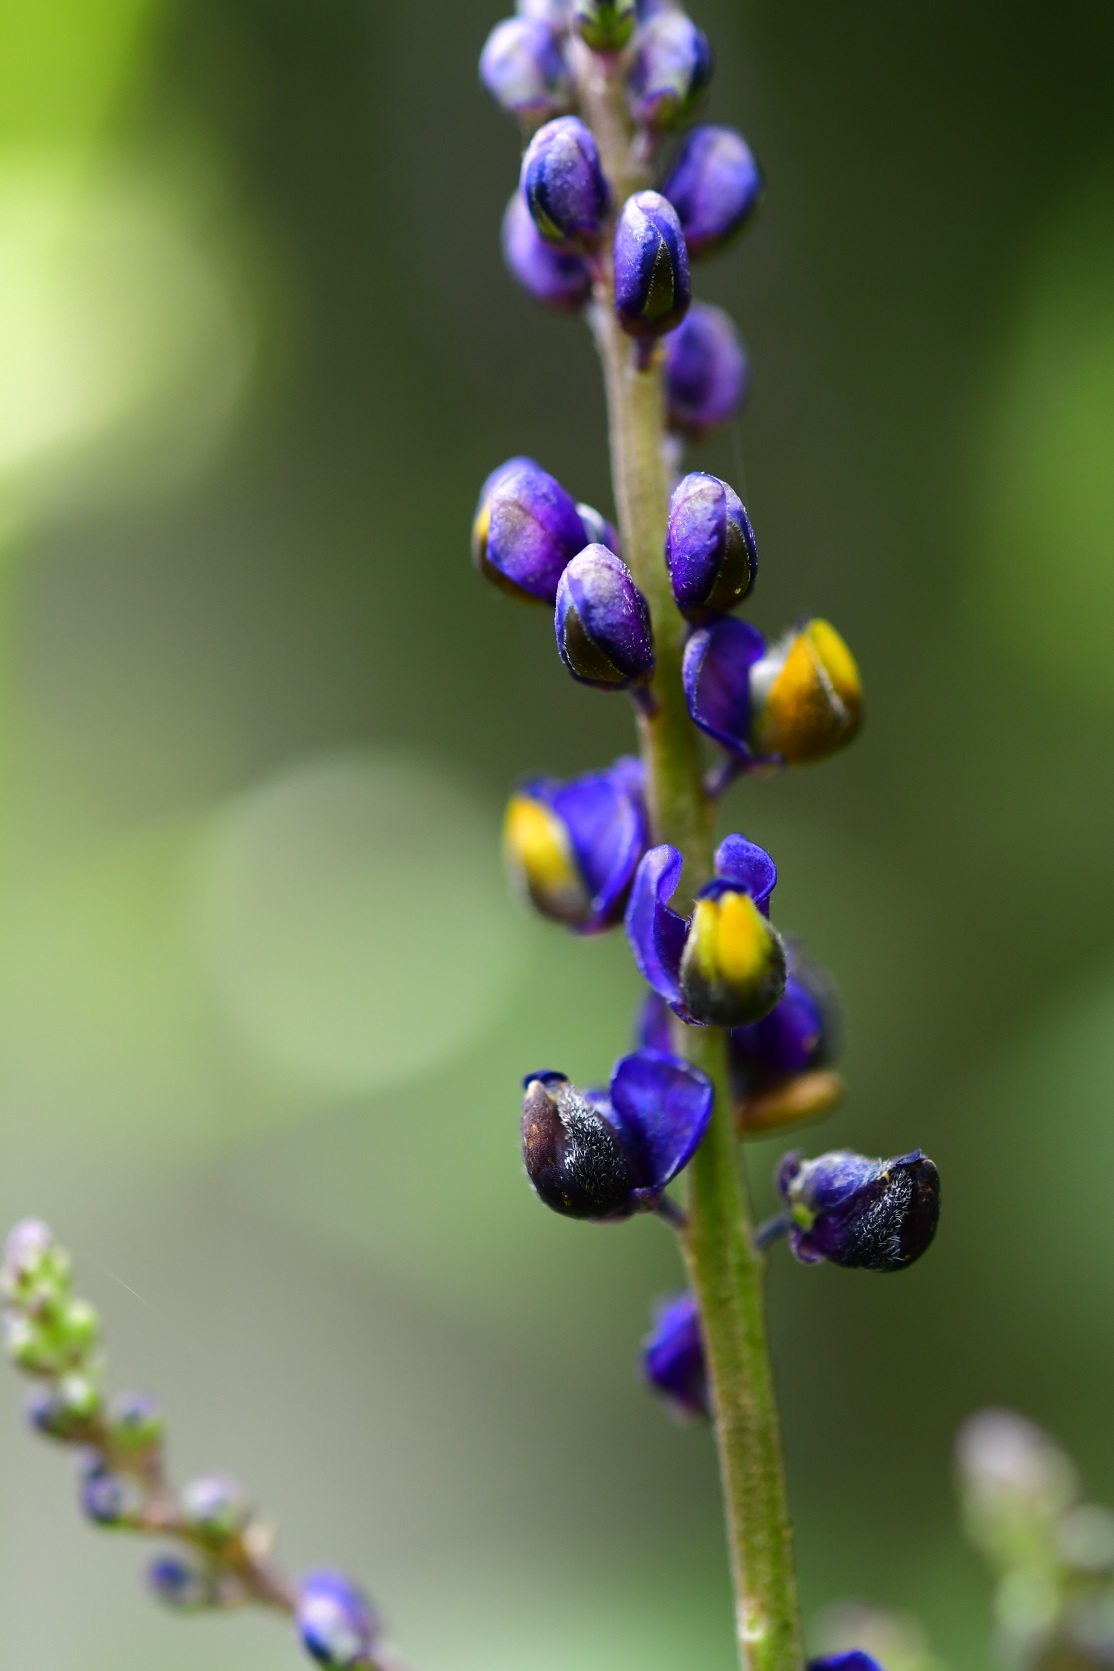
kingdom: Plantae
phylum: Tracheophyta
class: Magnoliopsida
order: Fabales
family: Polygalaceae
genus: Monnina
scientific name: Monnina xalapensis
